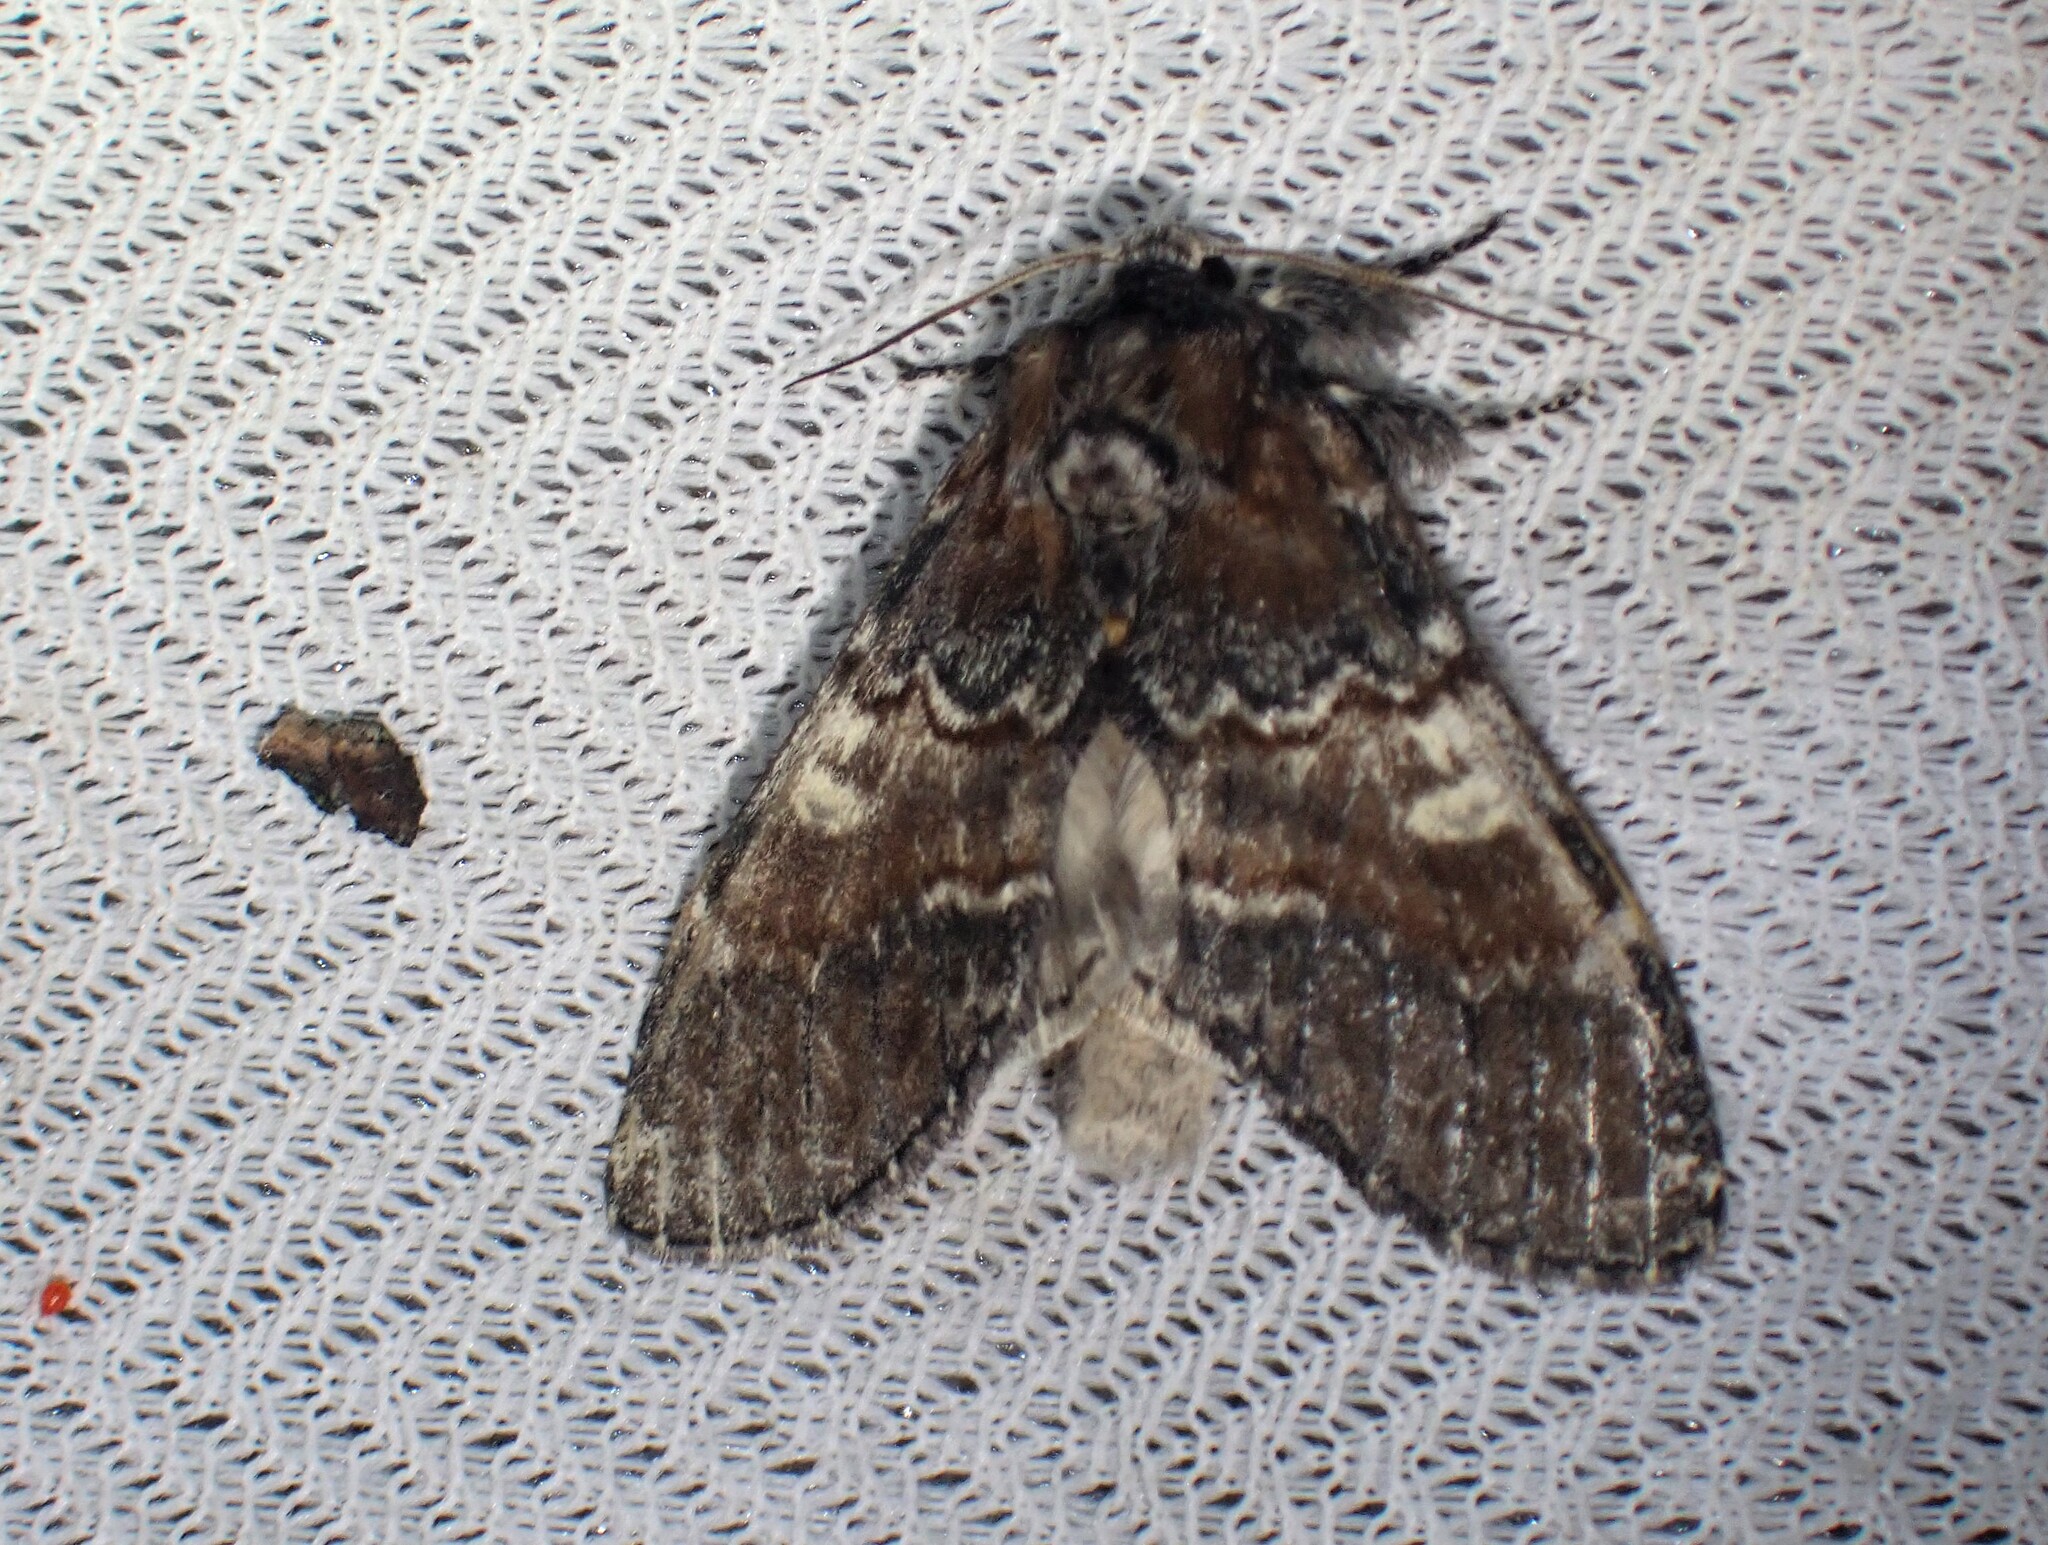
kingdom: Animalia
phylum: Arthropoda
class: Insecta
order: Lepidoptera
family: Notodontidae
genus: Peridea
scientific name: Peridea ferruginea
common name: Chocolate prominent
